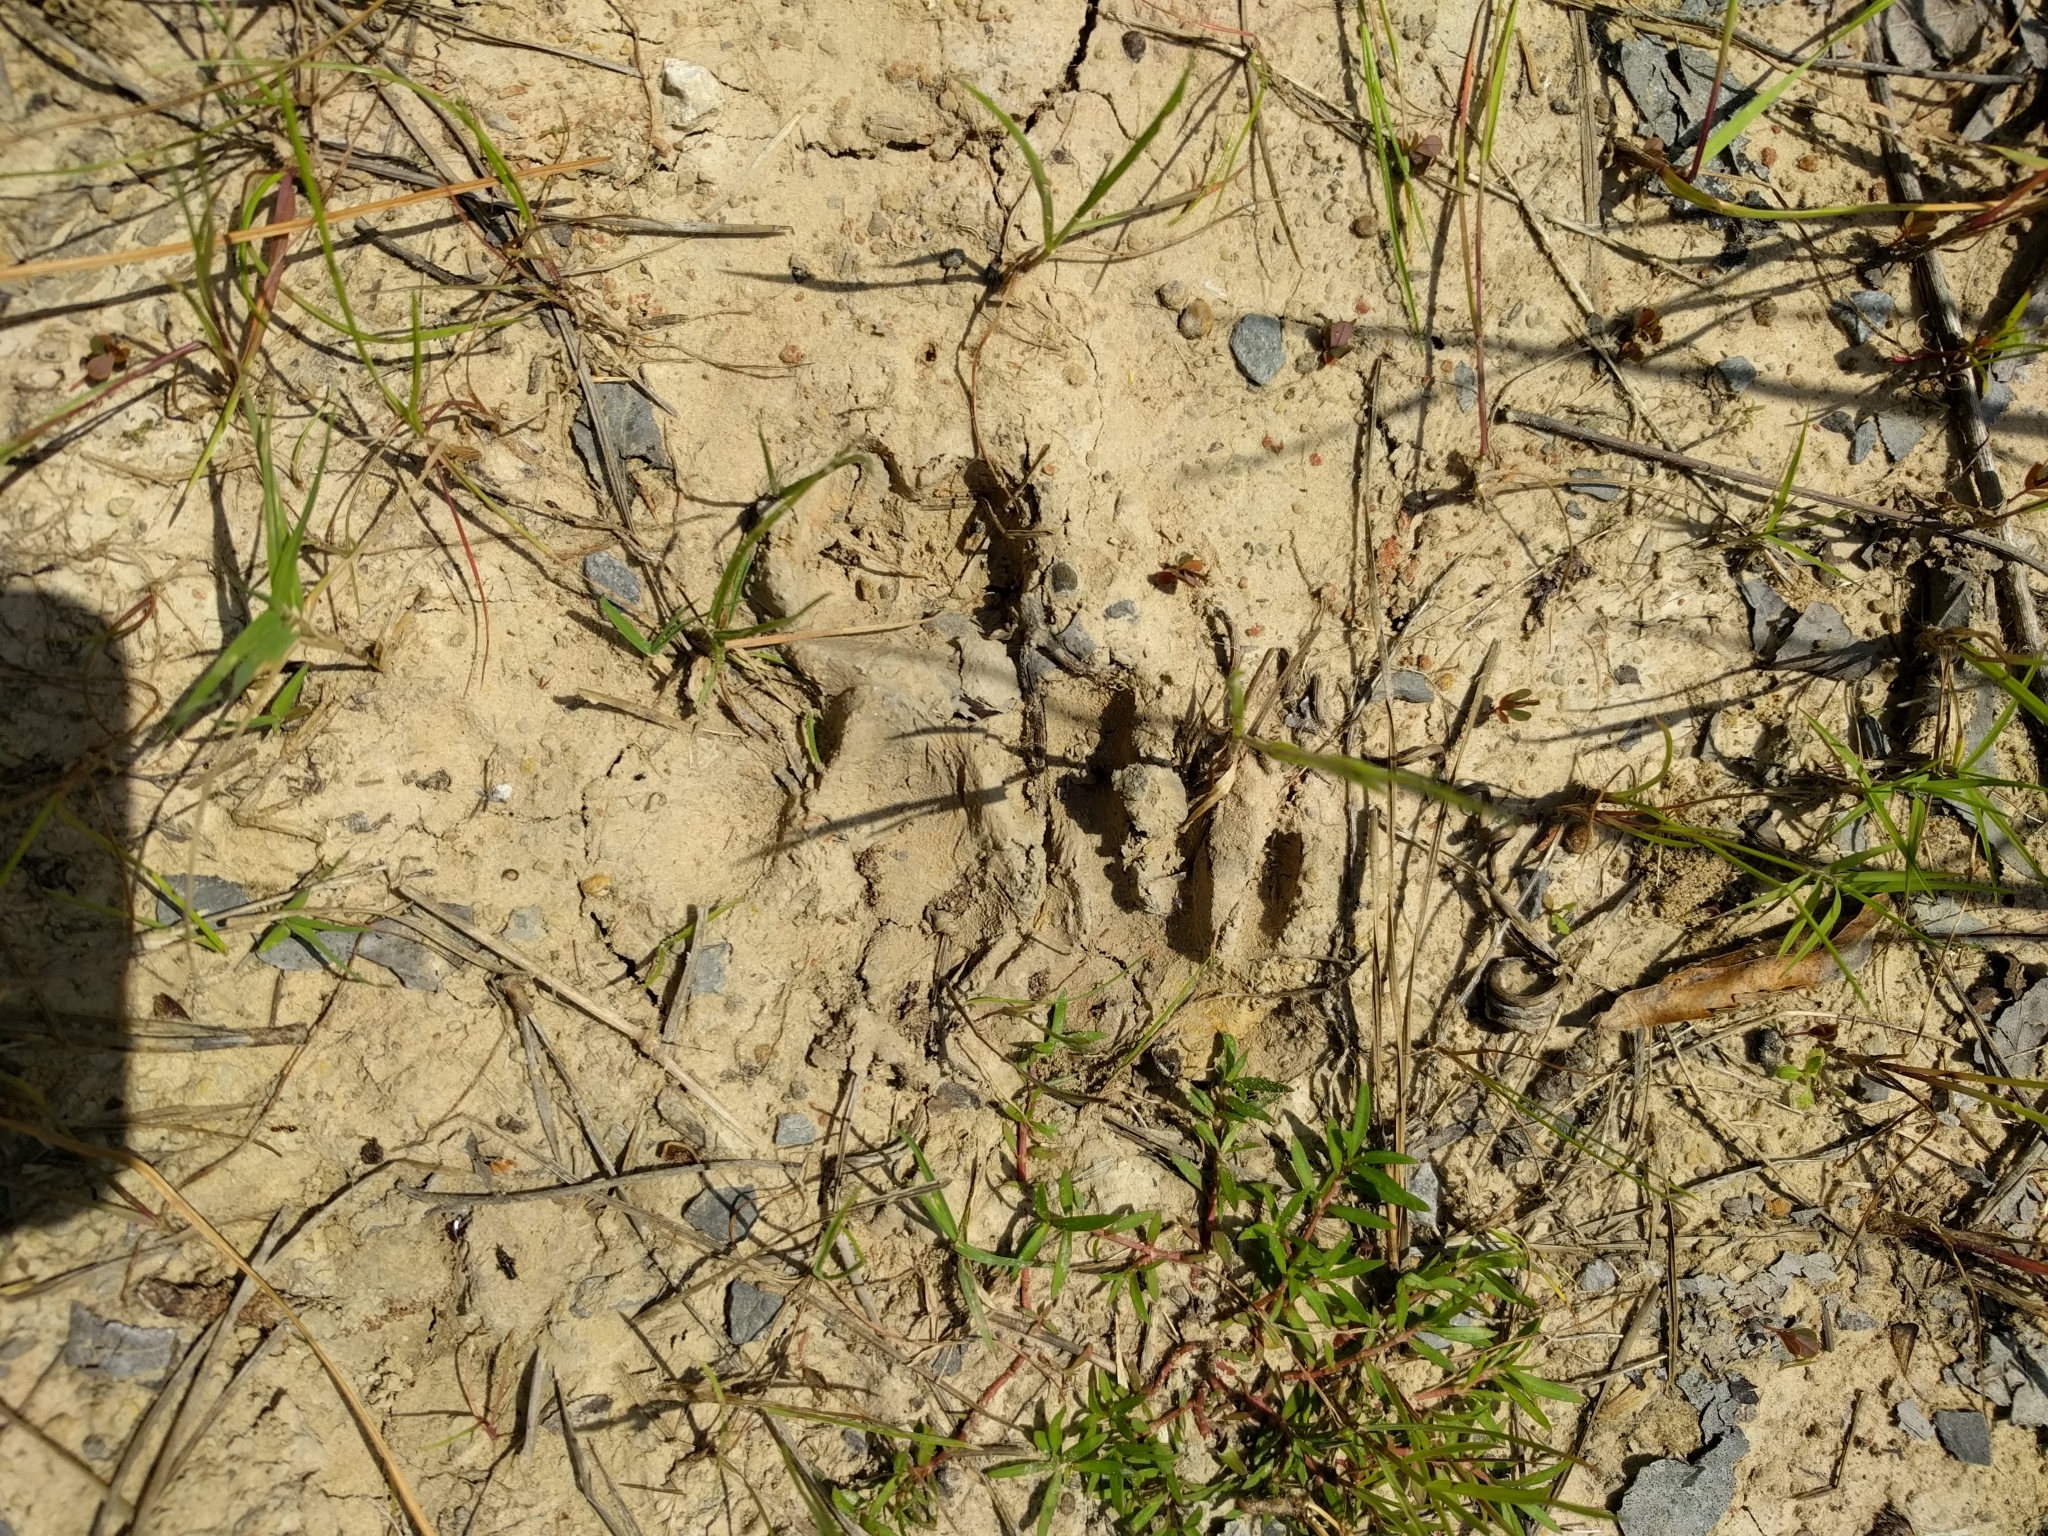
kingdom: Animalia
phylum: Chordata
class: Mammalia
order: Carnivora
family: Procyonidae
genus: Procyon
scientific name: Procyon lotor
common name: Raccoon
